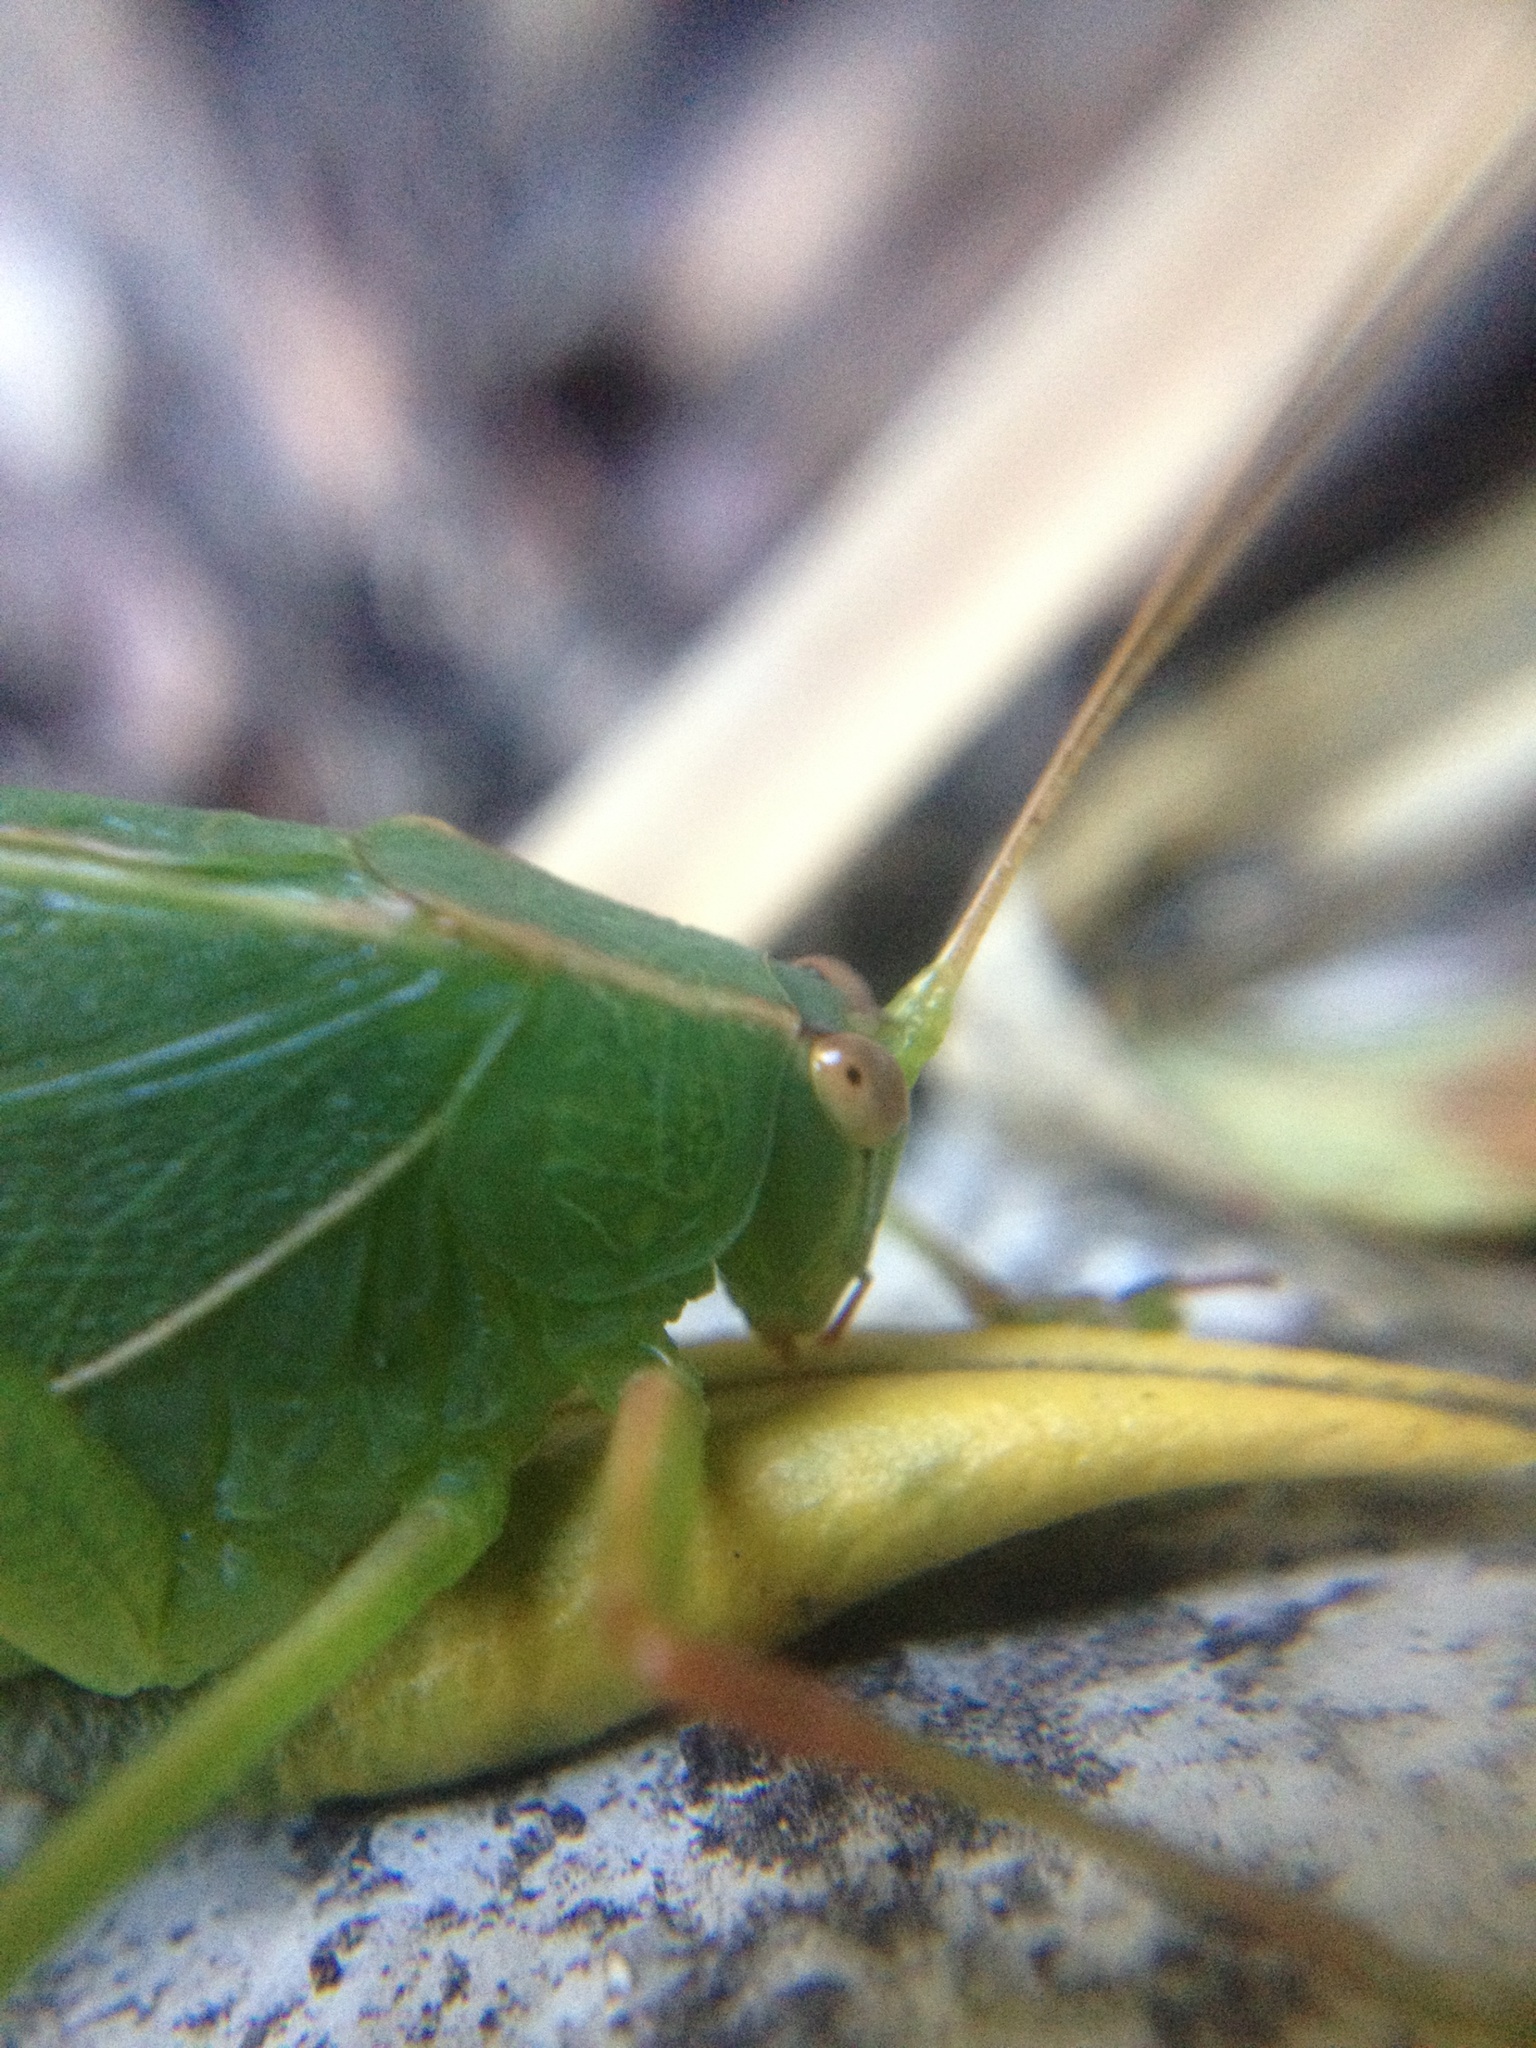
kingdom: Animalia
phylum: Arthropoda
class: Insecta
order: Orthoptera
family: Tettigoniidae
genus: Caedicia
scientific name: Caedicia simplex
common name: Common garden katydid
